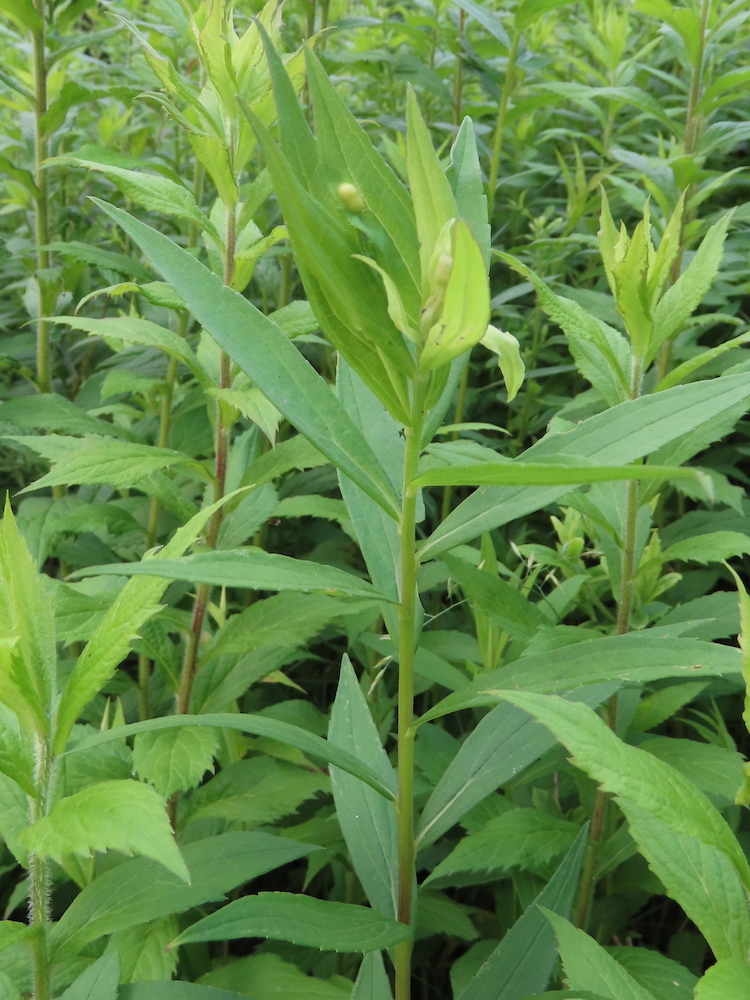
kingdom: Animalia
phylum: Arthropoda
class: Insecta
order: Diptera
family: Cecidomyiidae
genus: Asphondylia
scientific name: Asphondylia solidaginis
